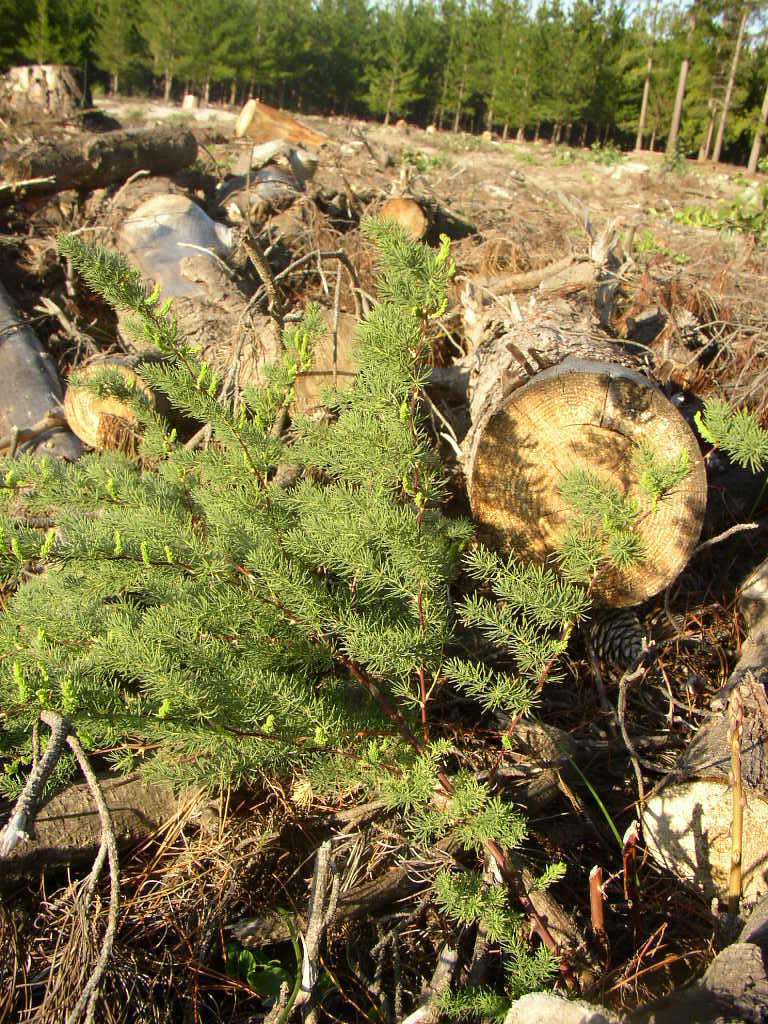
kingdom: Plantae
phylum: Tracheophyta
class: Liliopsida
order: Asparagales
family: Asparagaceae
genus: Asparagus
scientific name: Asparagus rubicundus
